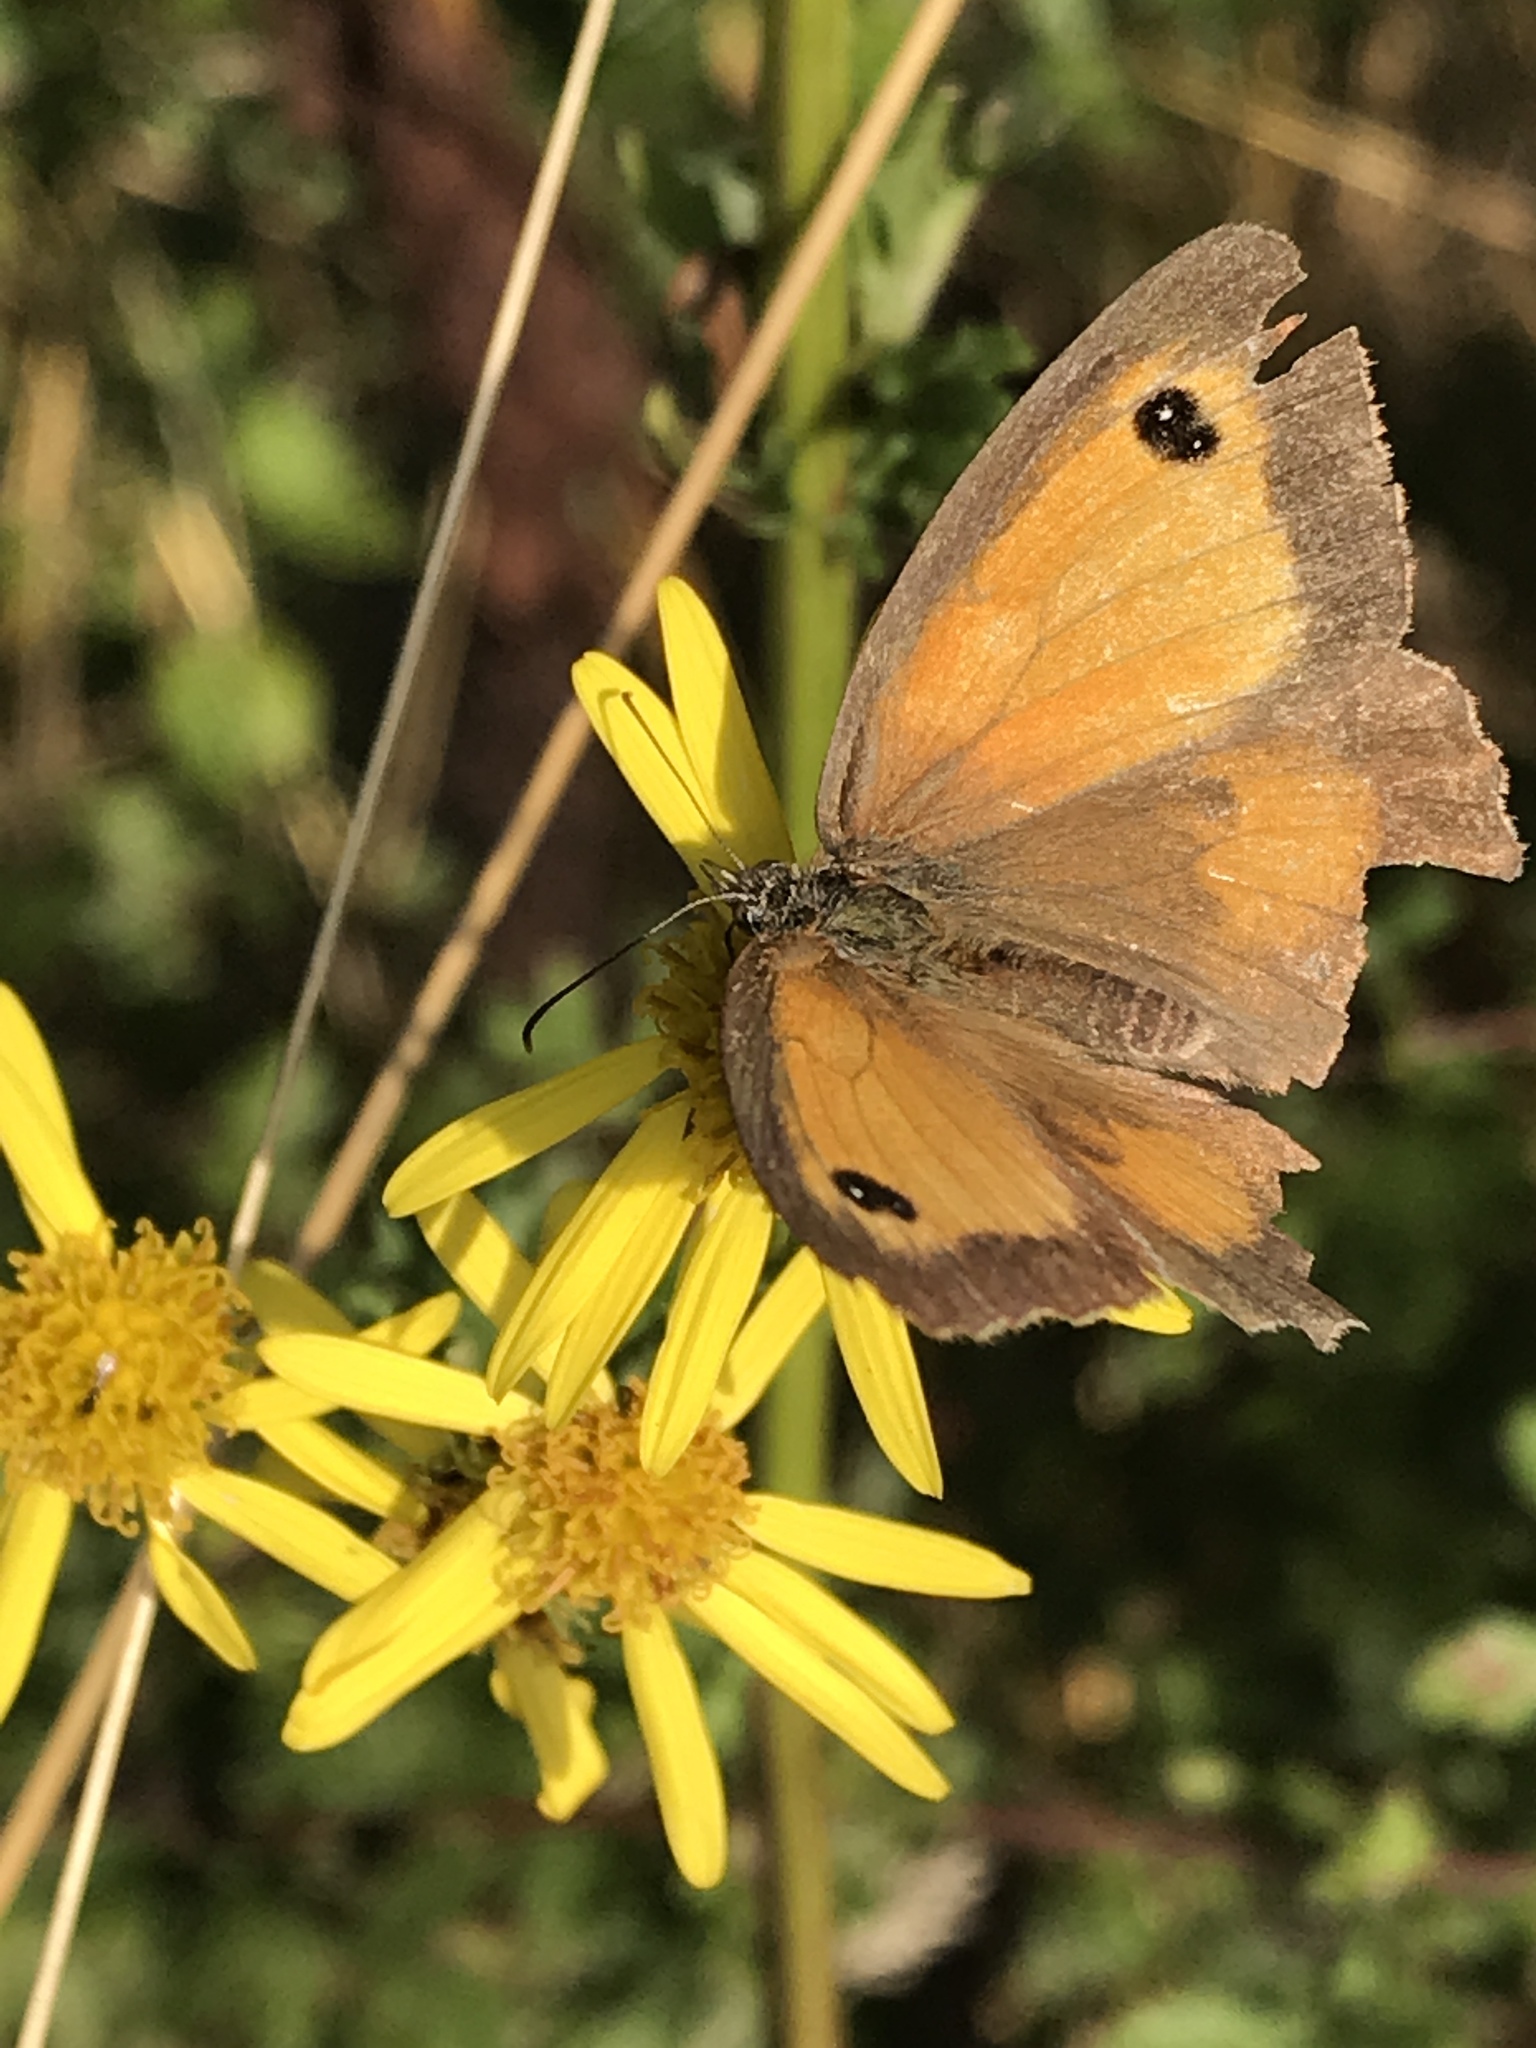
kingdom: Animalia
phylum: Arthropoda
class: Insecta
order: Lepidoptera
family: Nymphalidae
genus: Pyronia
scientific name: Pyronia tithonus
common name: Gatekeeper
